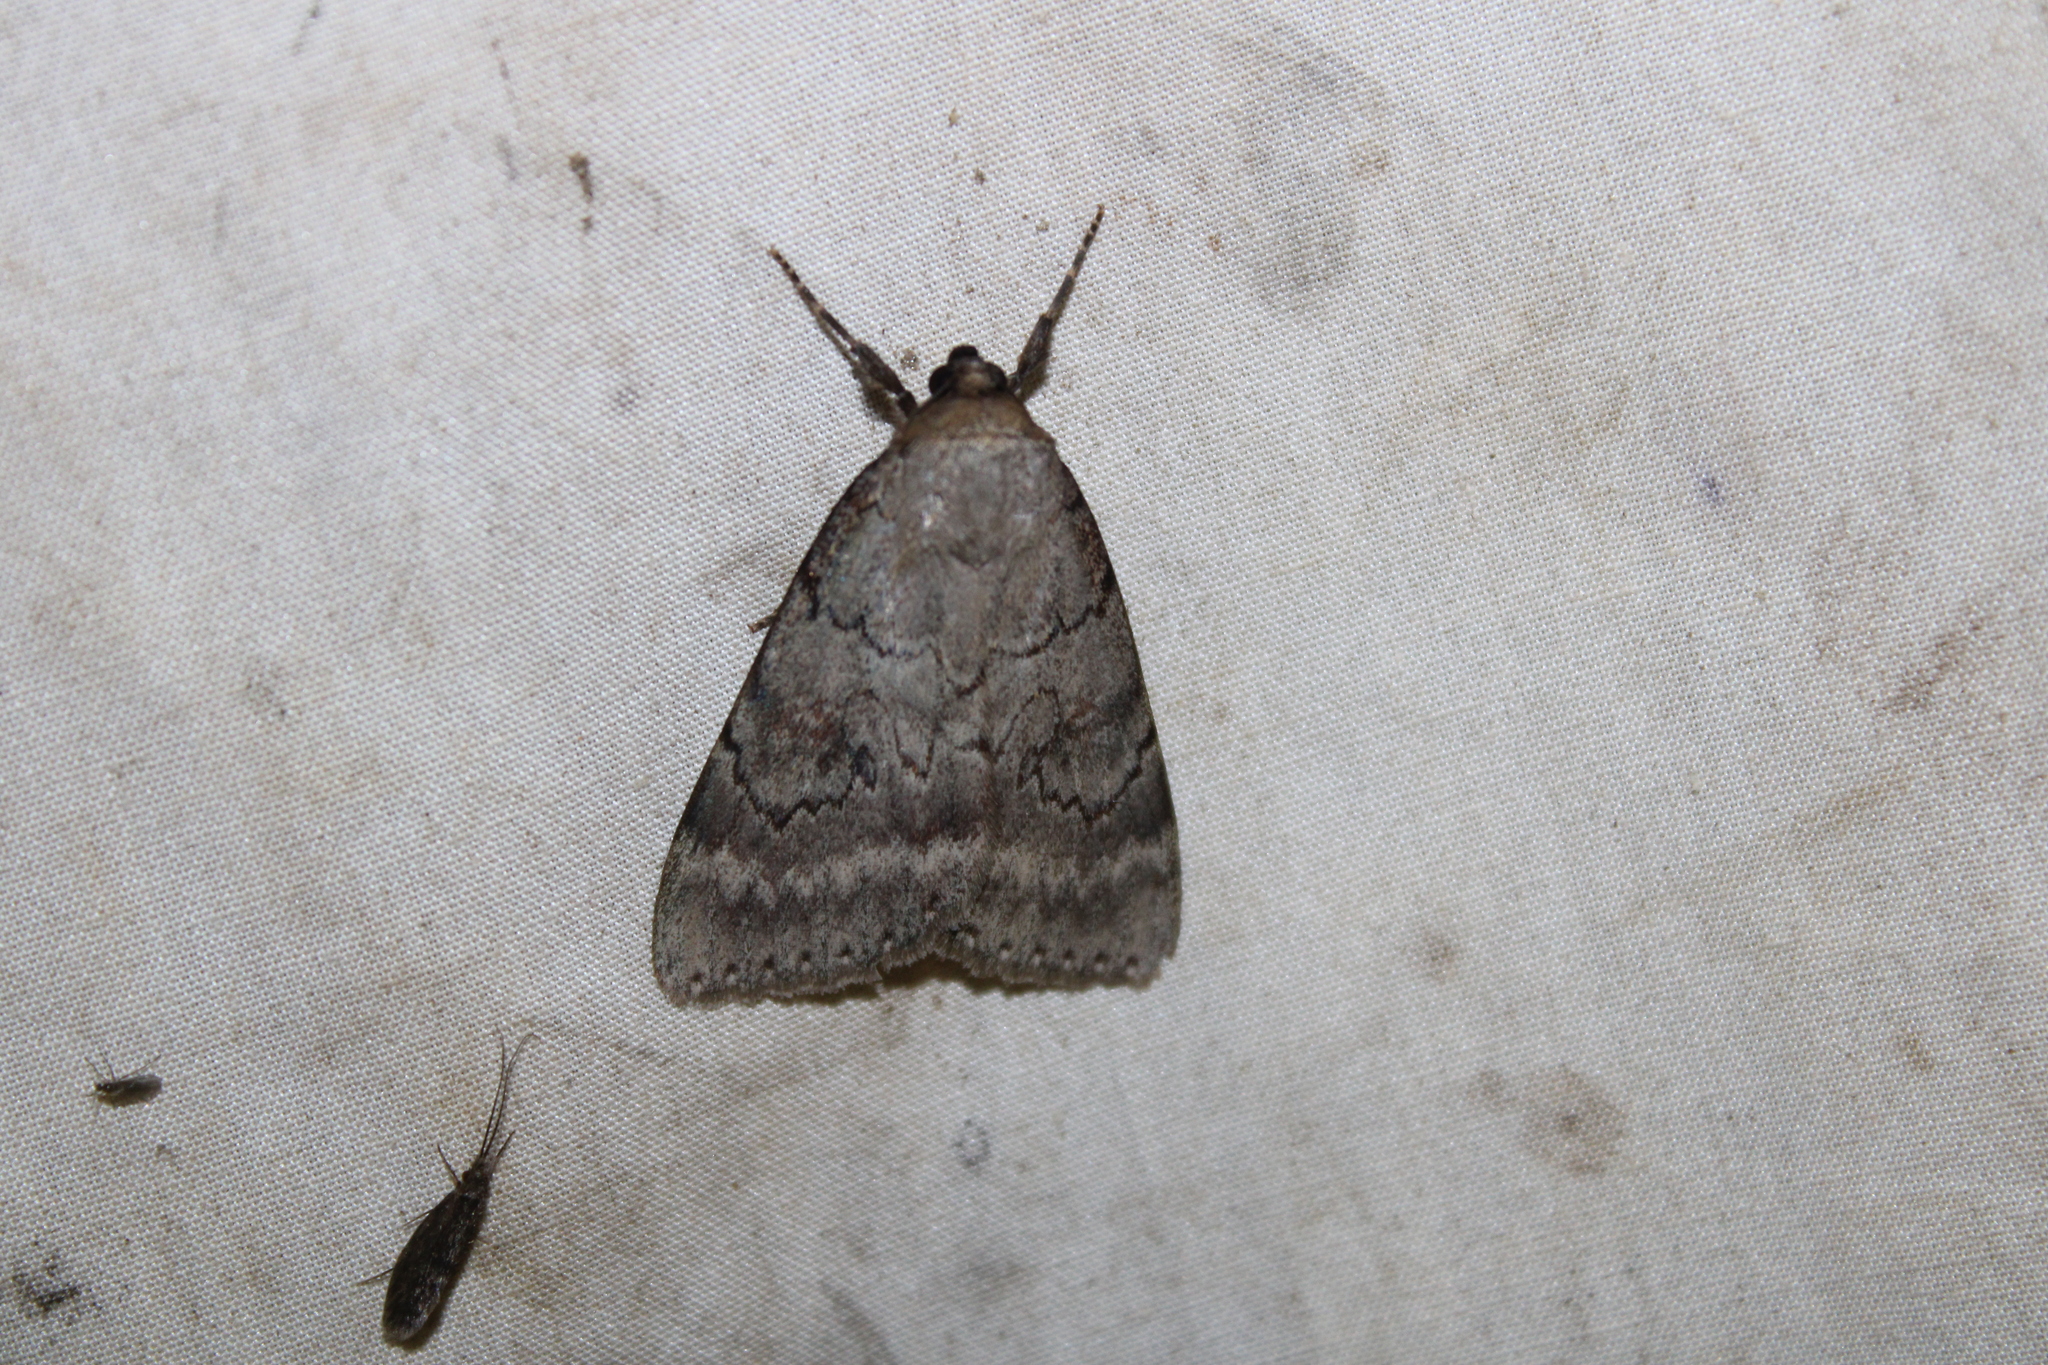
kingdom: Animalia
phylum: Arthropoda
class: Insecta
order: Lepidoptera
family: Erebidae
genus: Catocala
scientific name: Catocala serena
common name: Serene underwing
